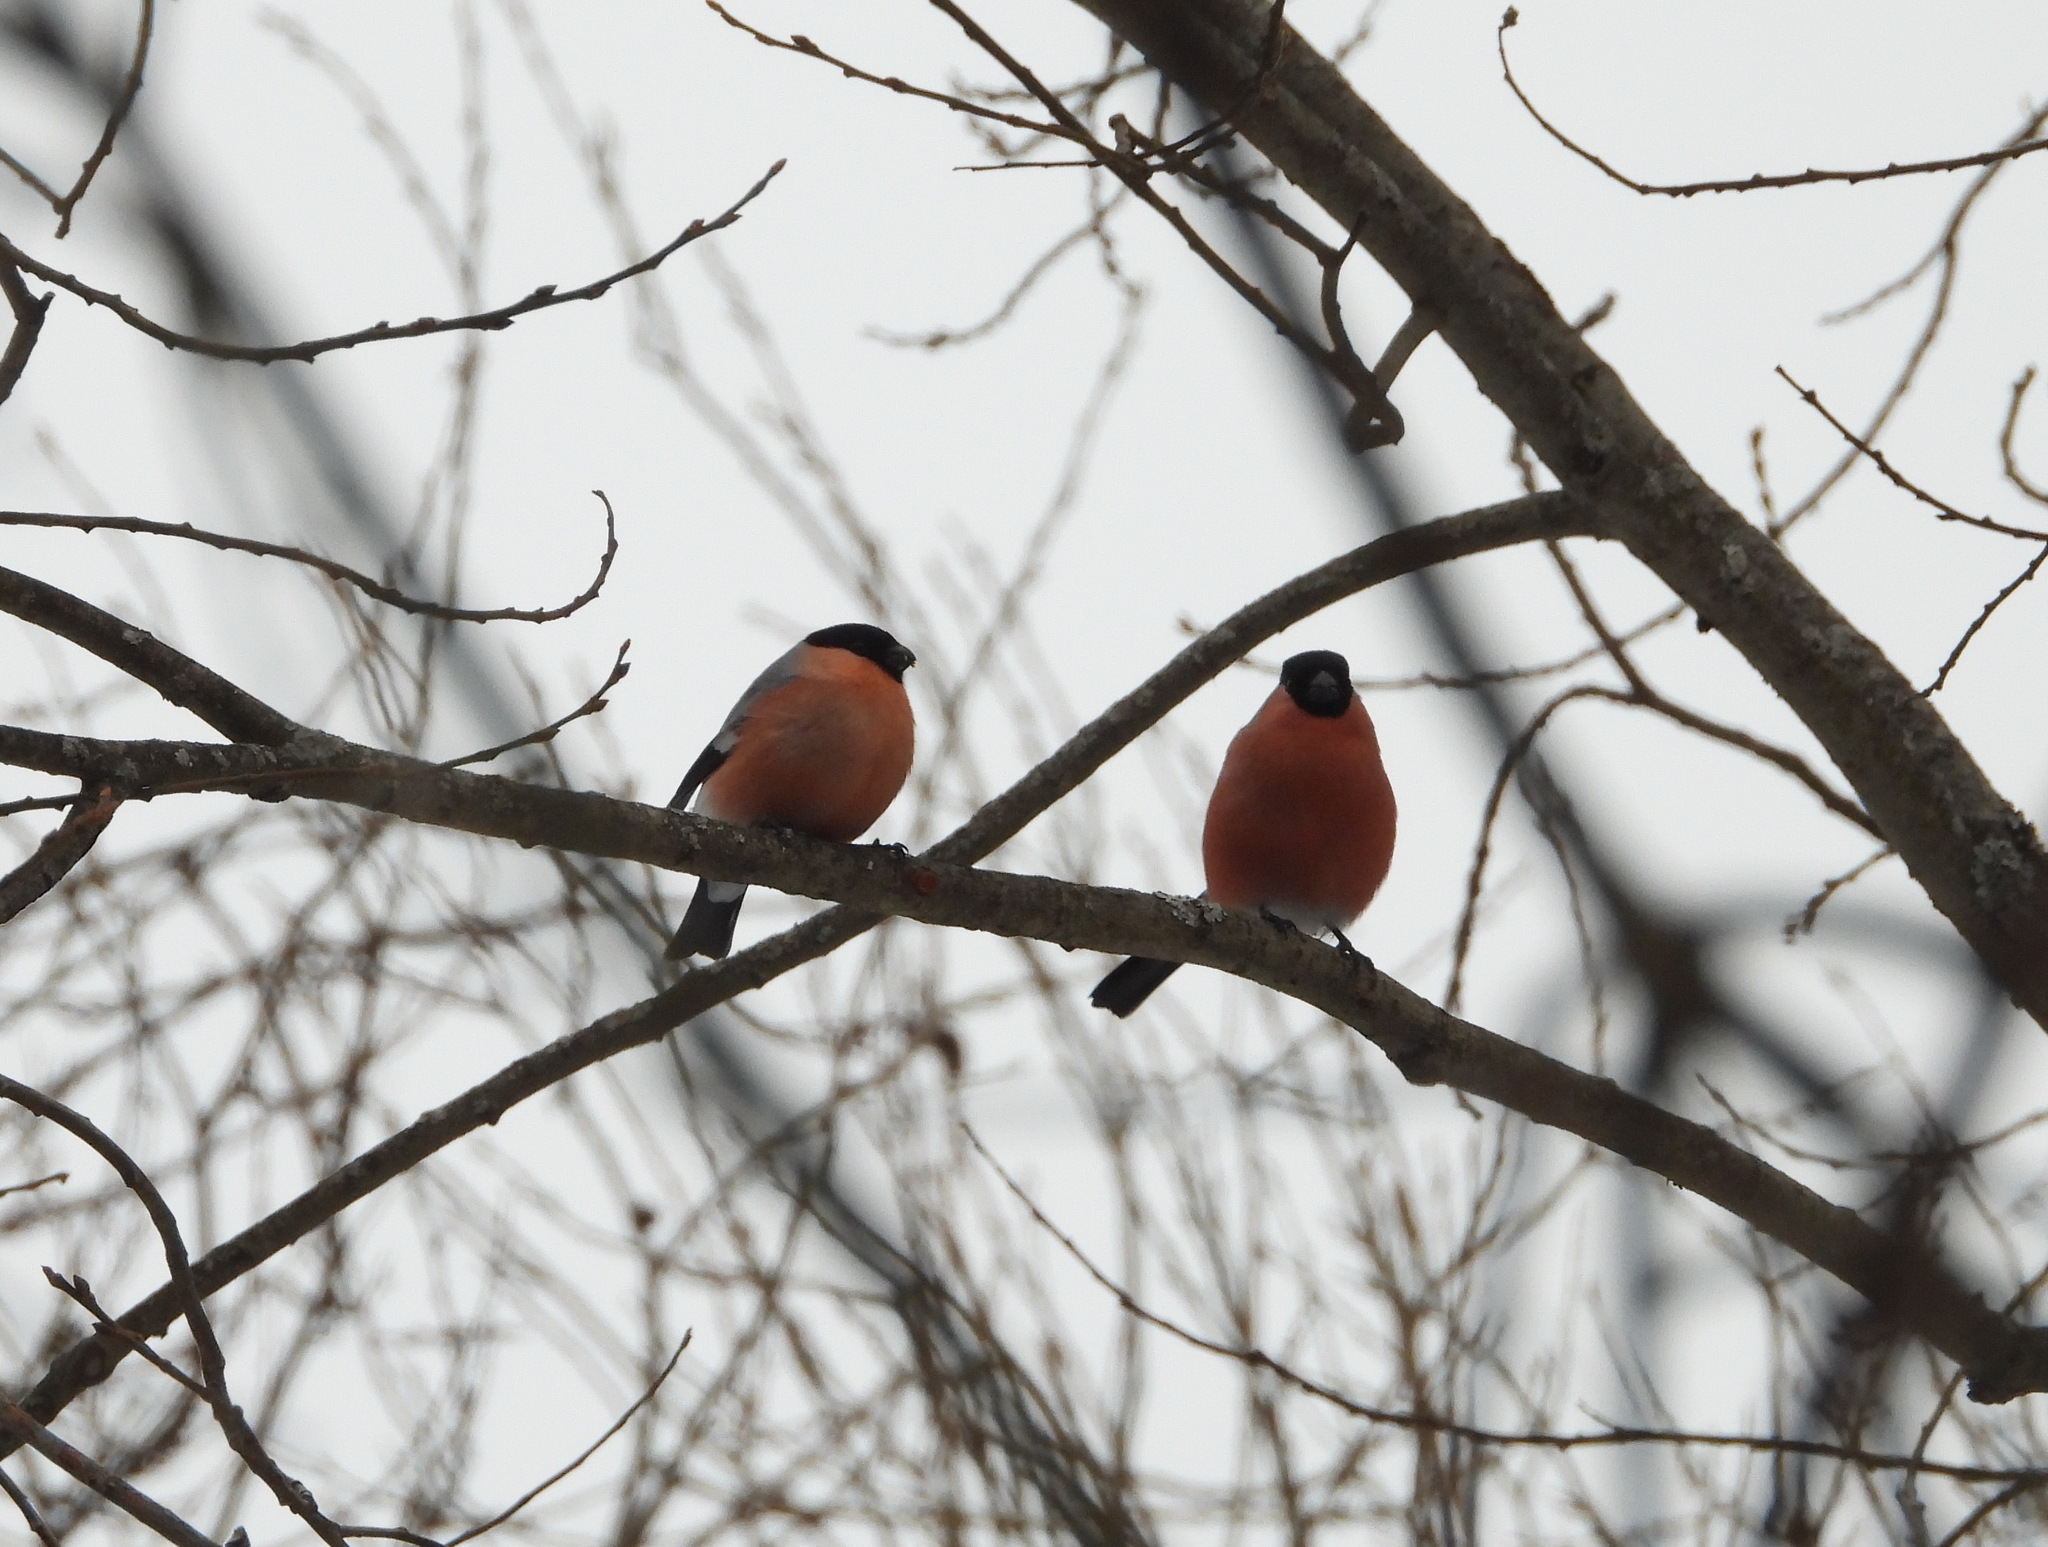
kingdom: Animalia
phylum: Chordata
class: Aves
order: Passeriformes
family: Fringillidae
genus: Pyrrhula
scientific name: Pyrrhula pyrrhula
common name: Eurasian bullfinch
